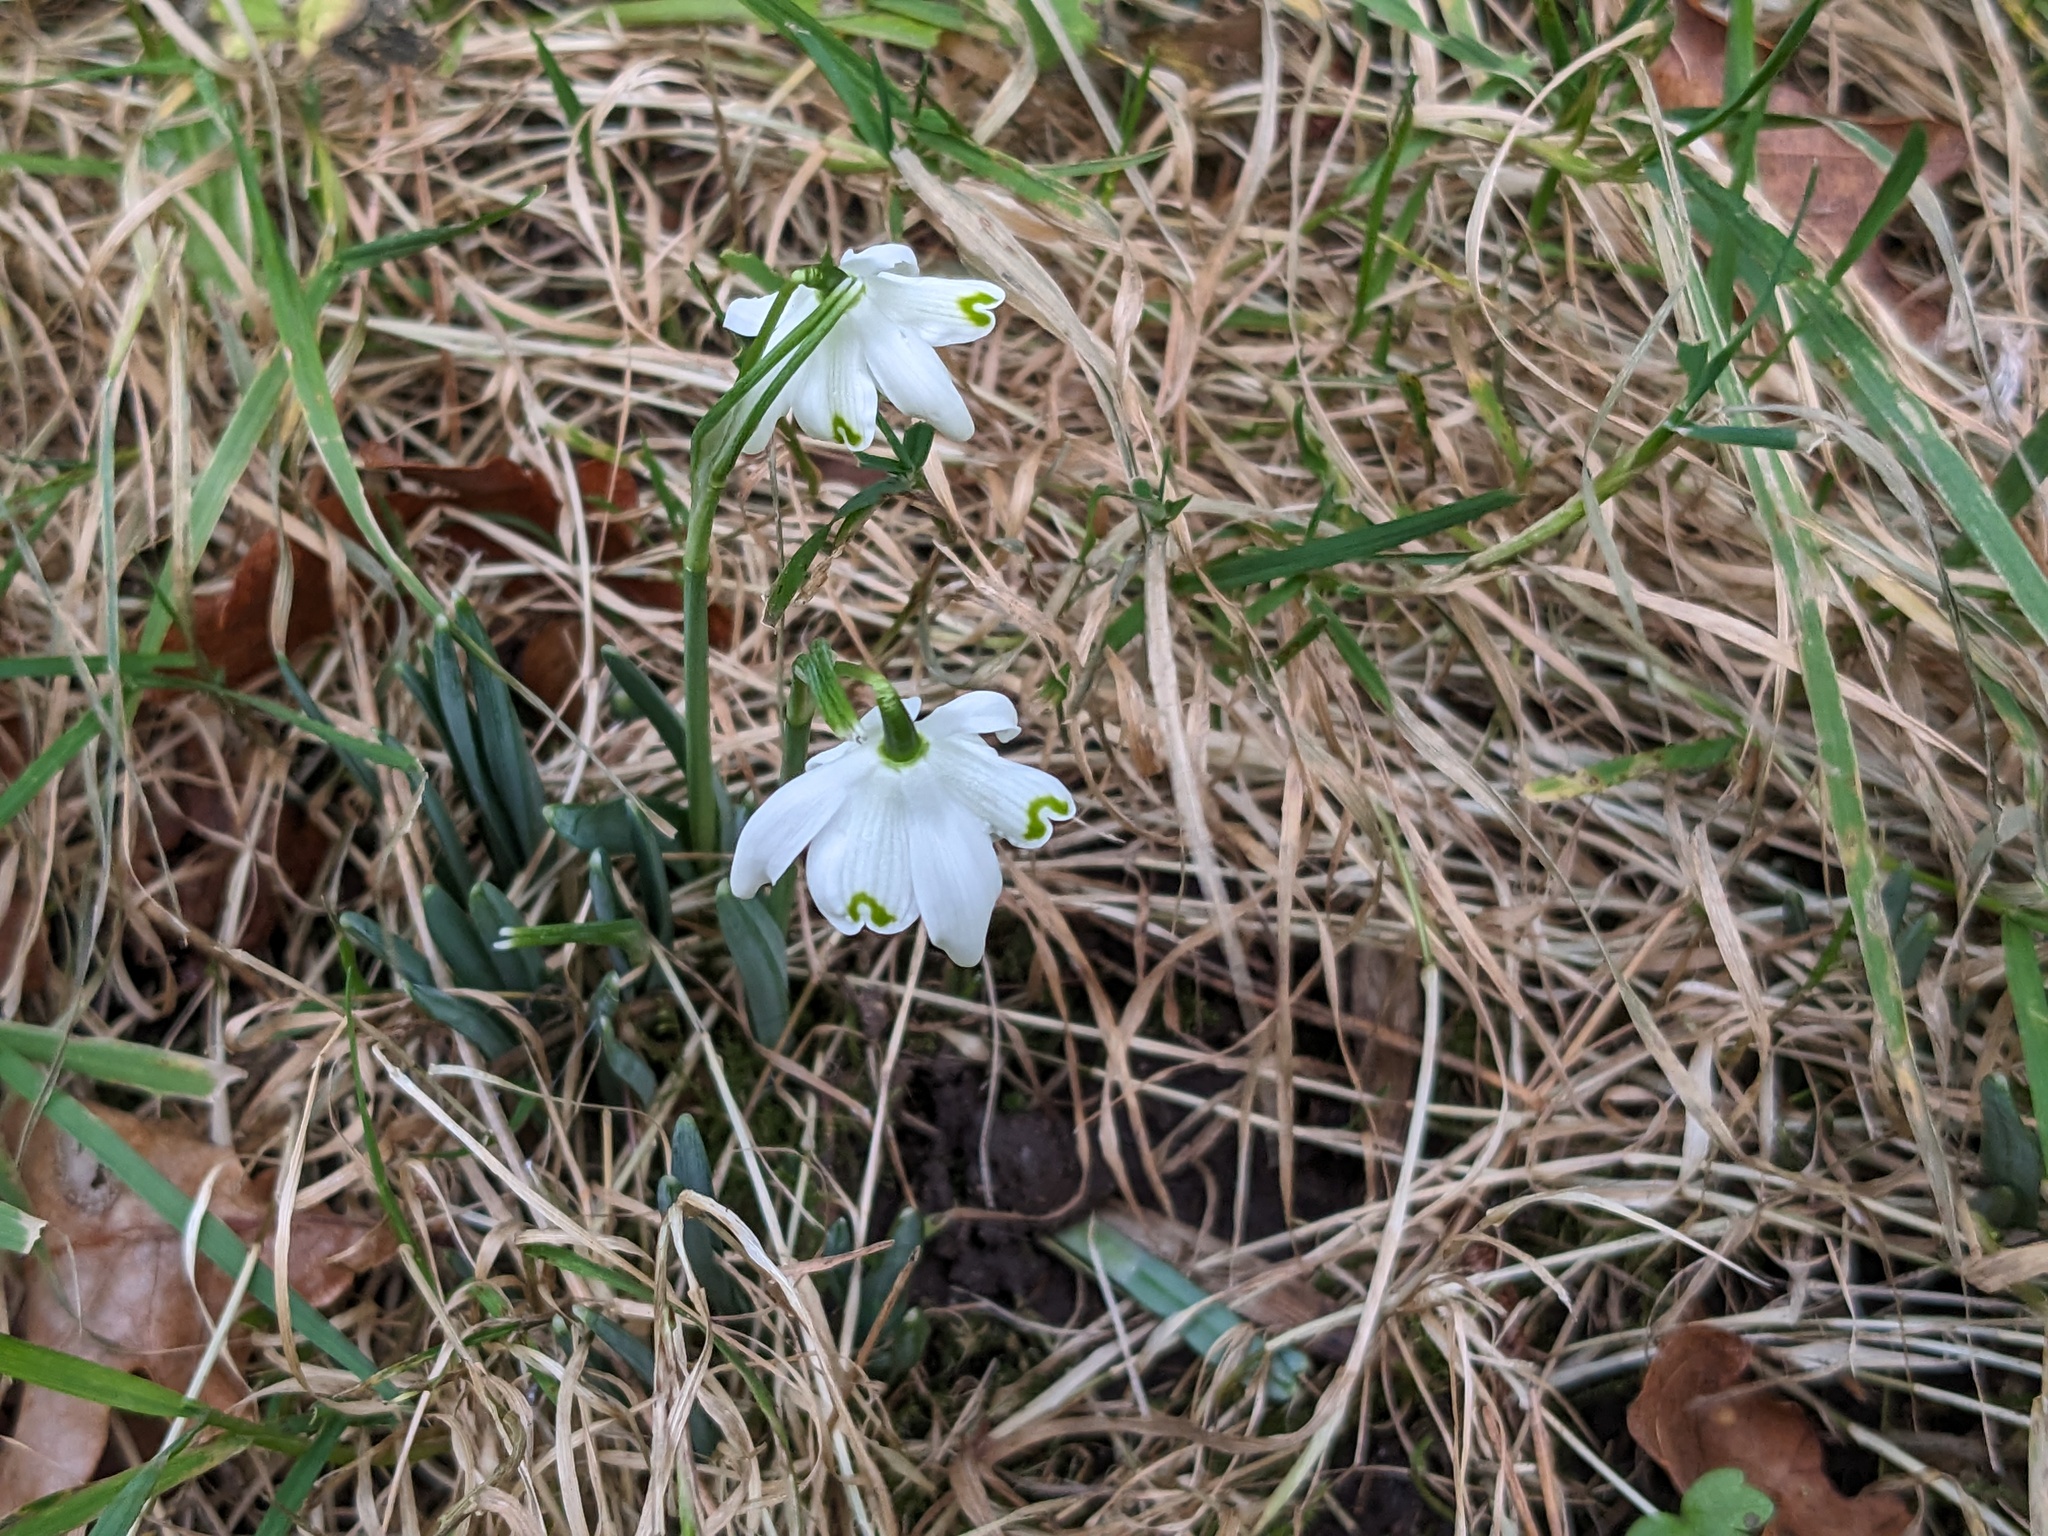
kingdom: Plantae
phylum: Tracheophyta
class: Liliopsida
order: Asparagales
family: Amaryllidaceae
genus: Galanthus
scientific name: Galanthus nivalis
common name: Snowdrop
